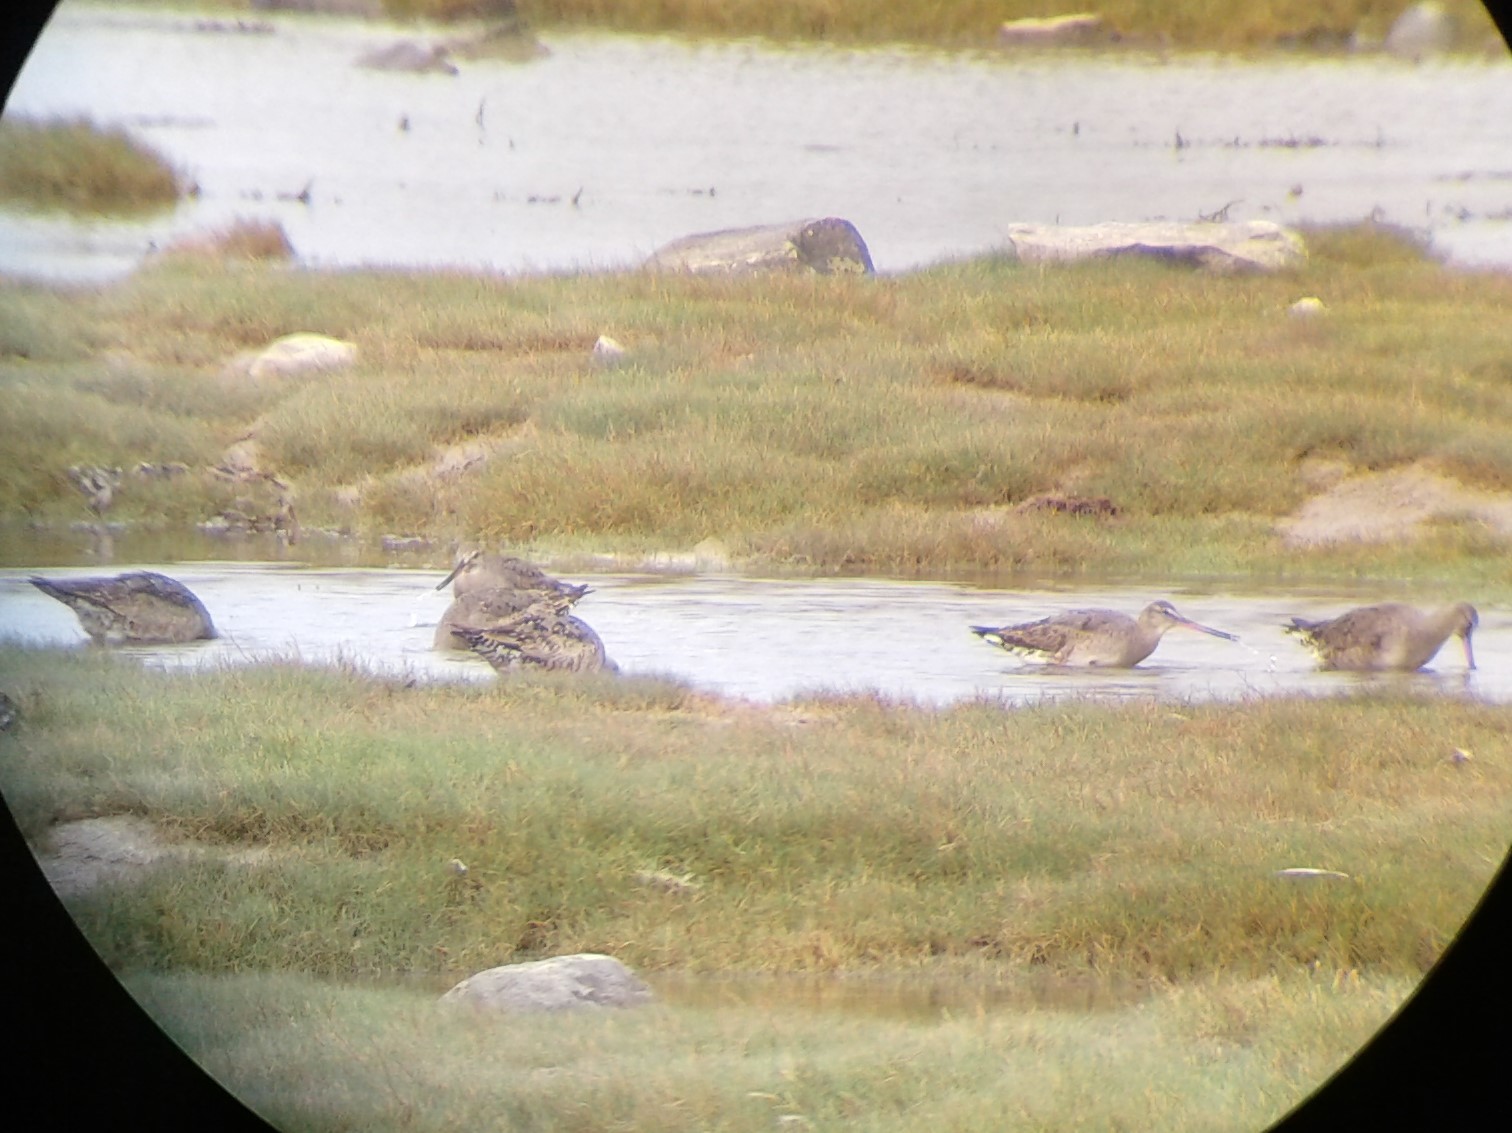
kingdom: Animalia
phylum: Chordata
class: Aves
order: Charadriiformes
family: Scolopacidae
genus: Limosa
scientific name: Limosa haemastica
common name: Hudsonian godwit
